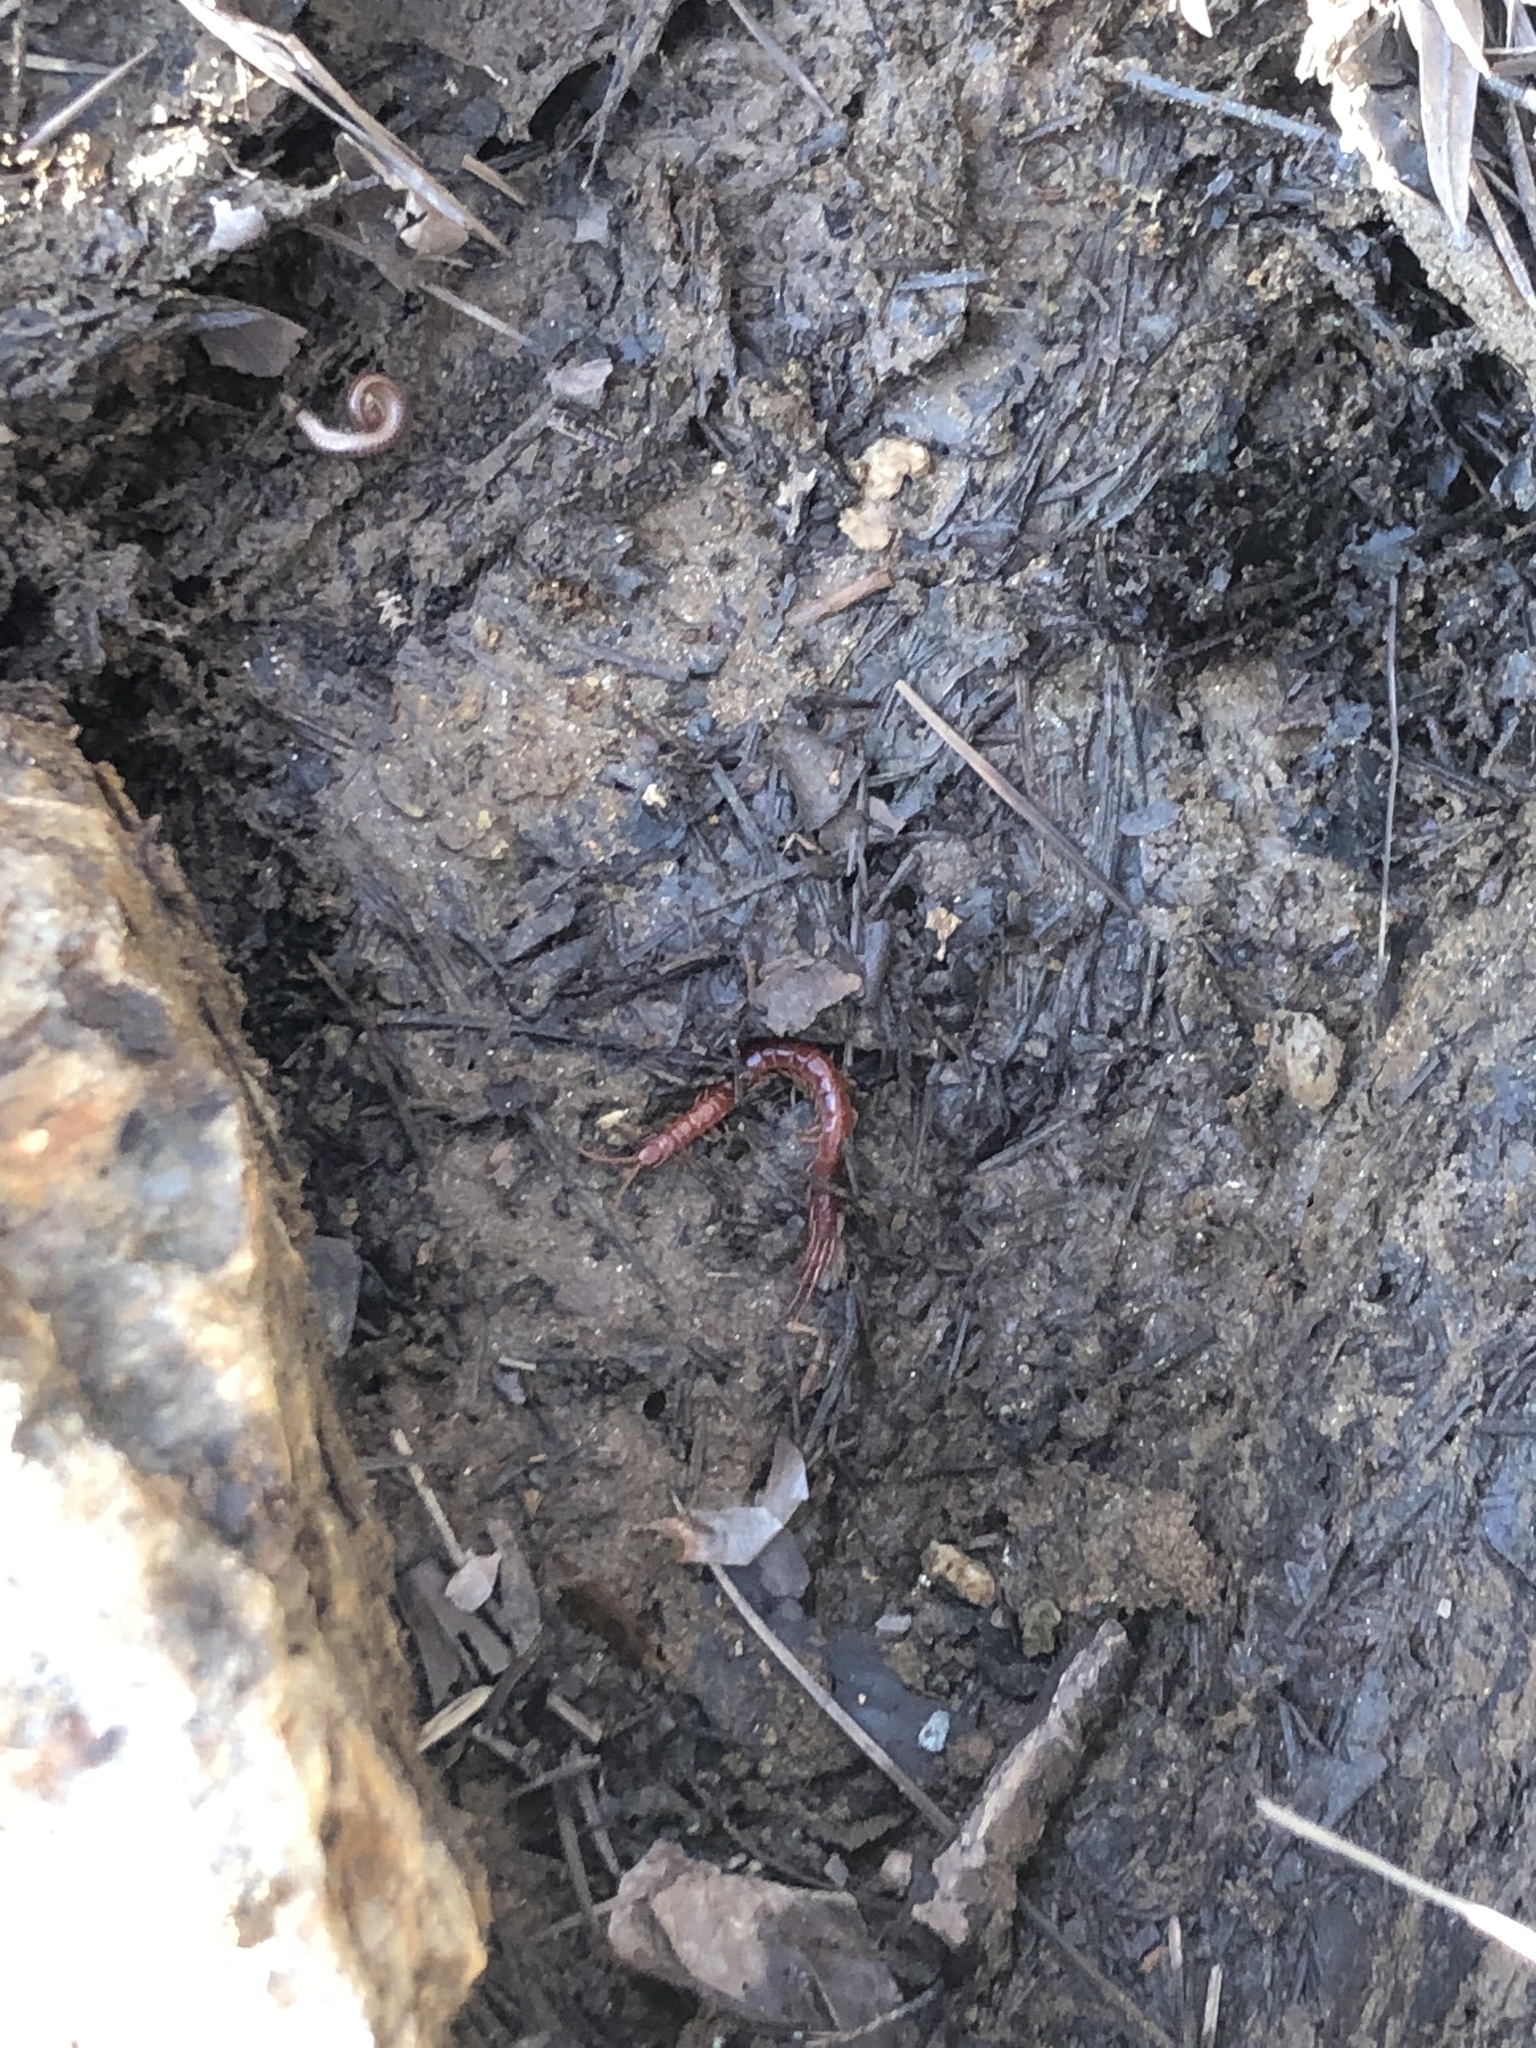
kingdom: Animalia
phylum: Arthropoda
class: Chilopoda
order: Scolopendromorpha
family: Scolopocryptopidae
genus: Scolopocryptops
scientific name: Scolopocryptops sexspinosus
